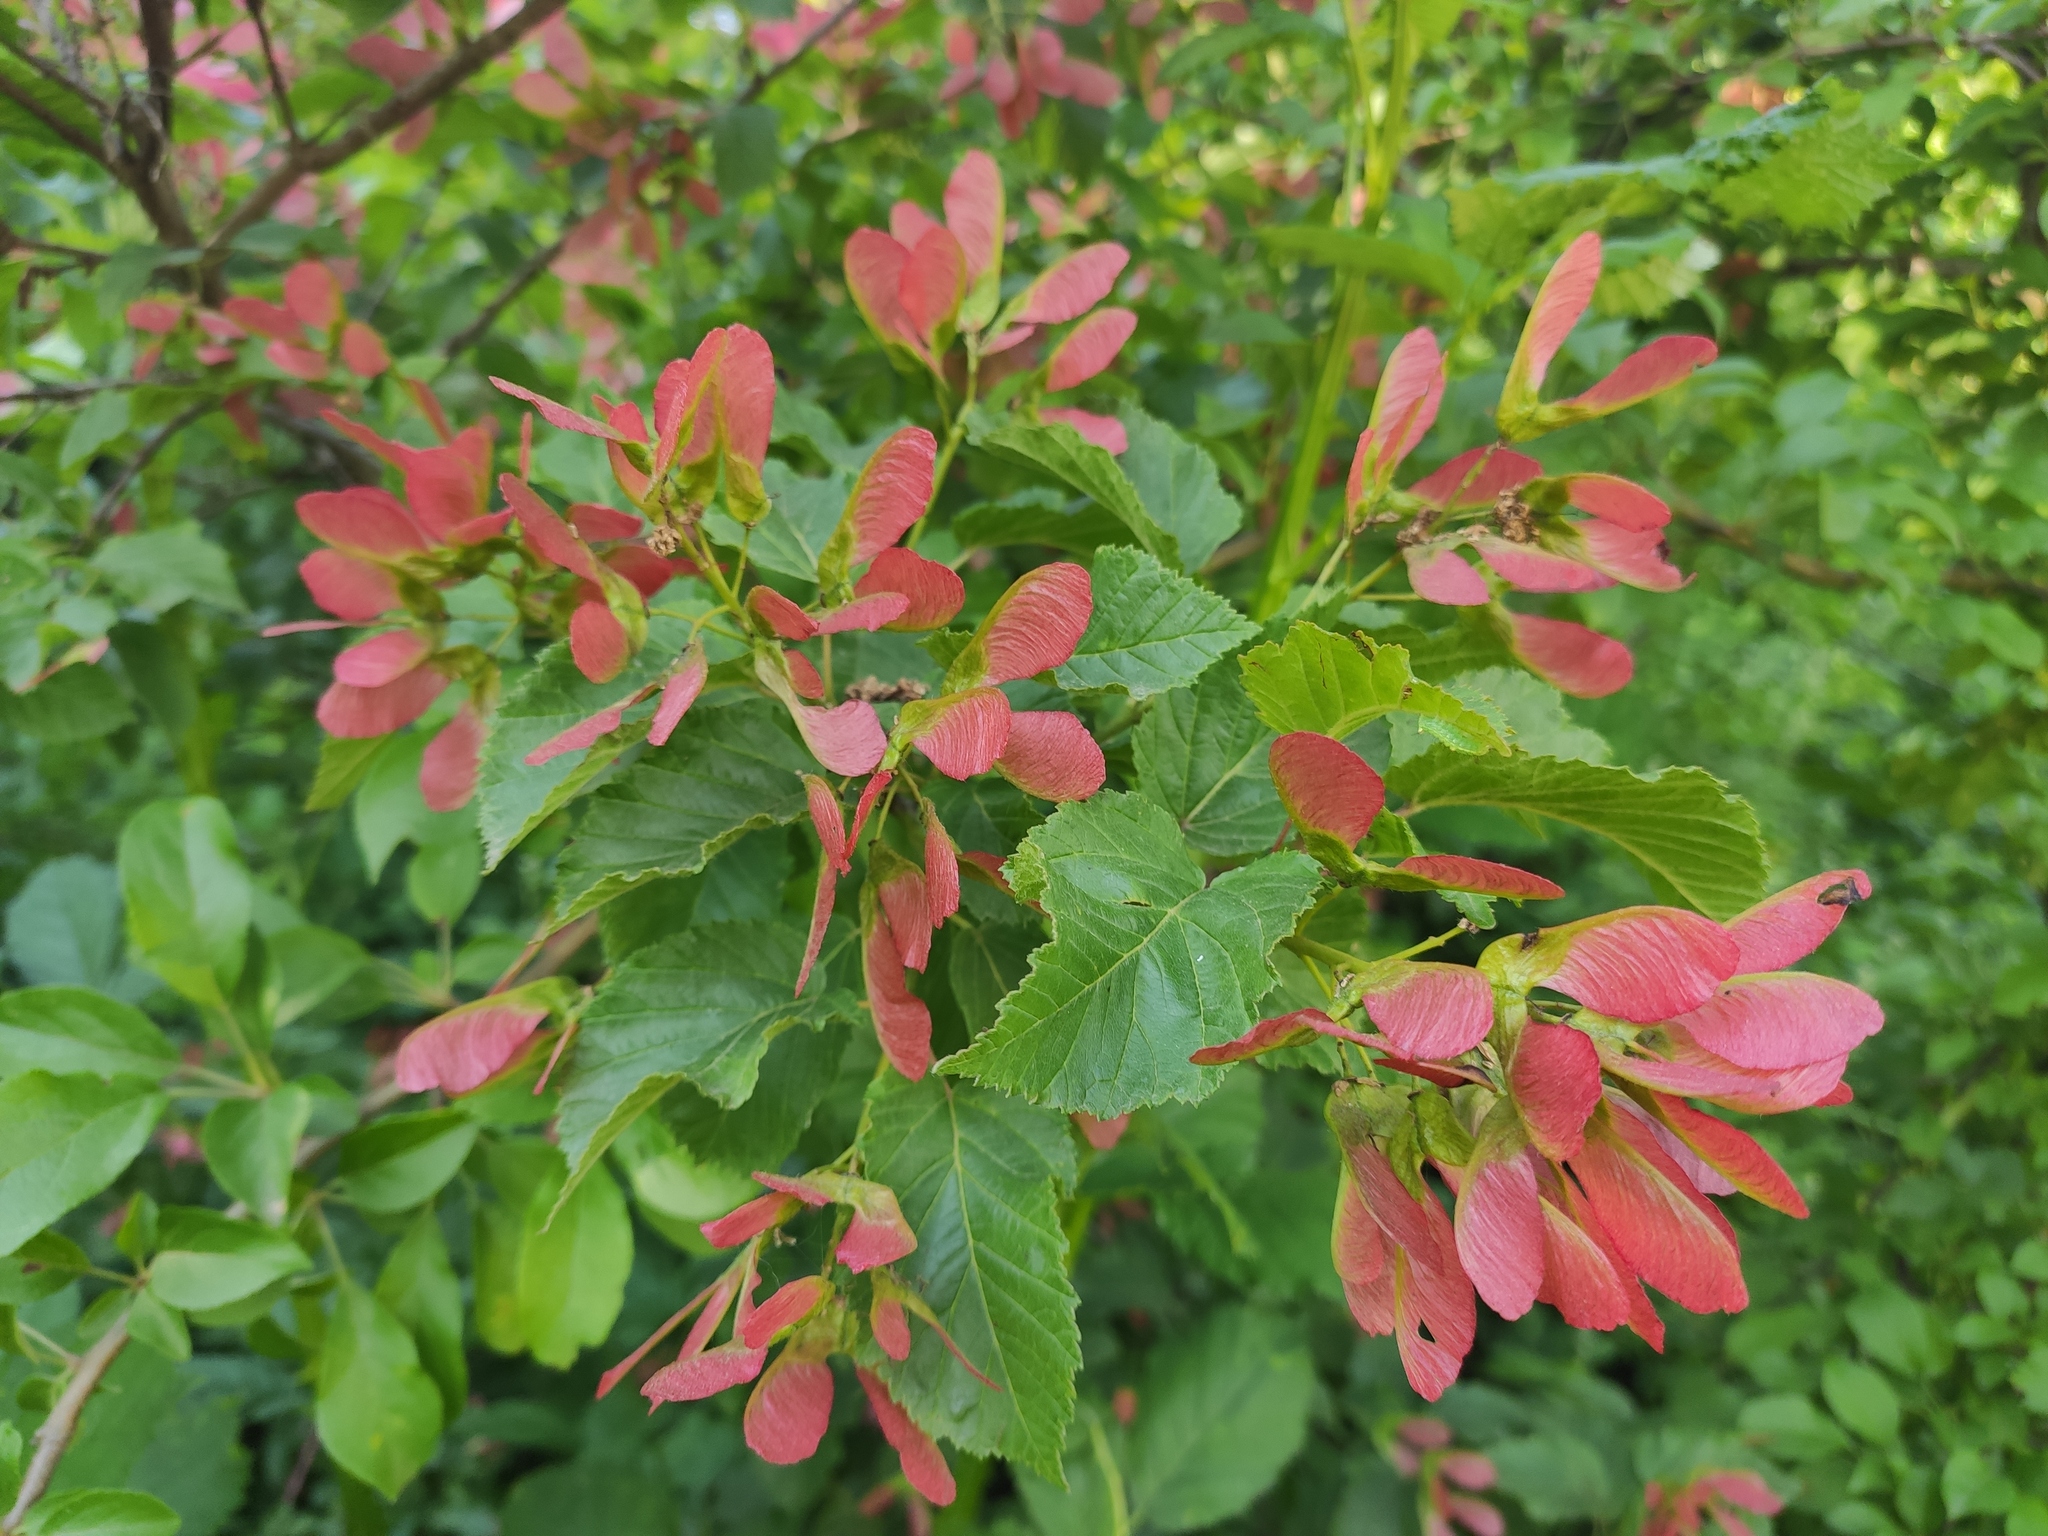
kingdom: Plantae
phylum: Tracheophyta
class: Magnoliopsida
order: Sapindales
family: Sapindaceae
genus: Acer
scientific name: Acer tataricum
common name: Tartar maple
